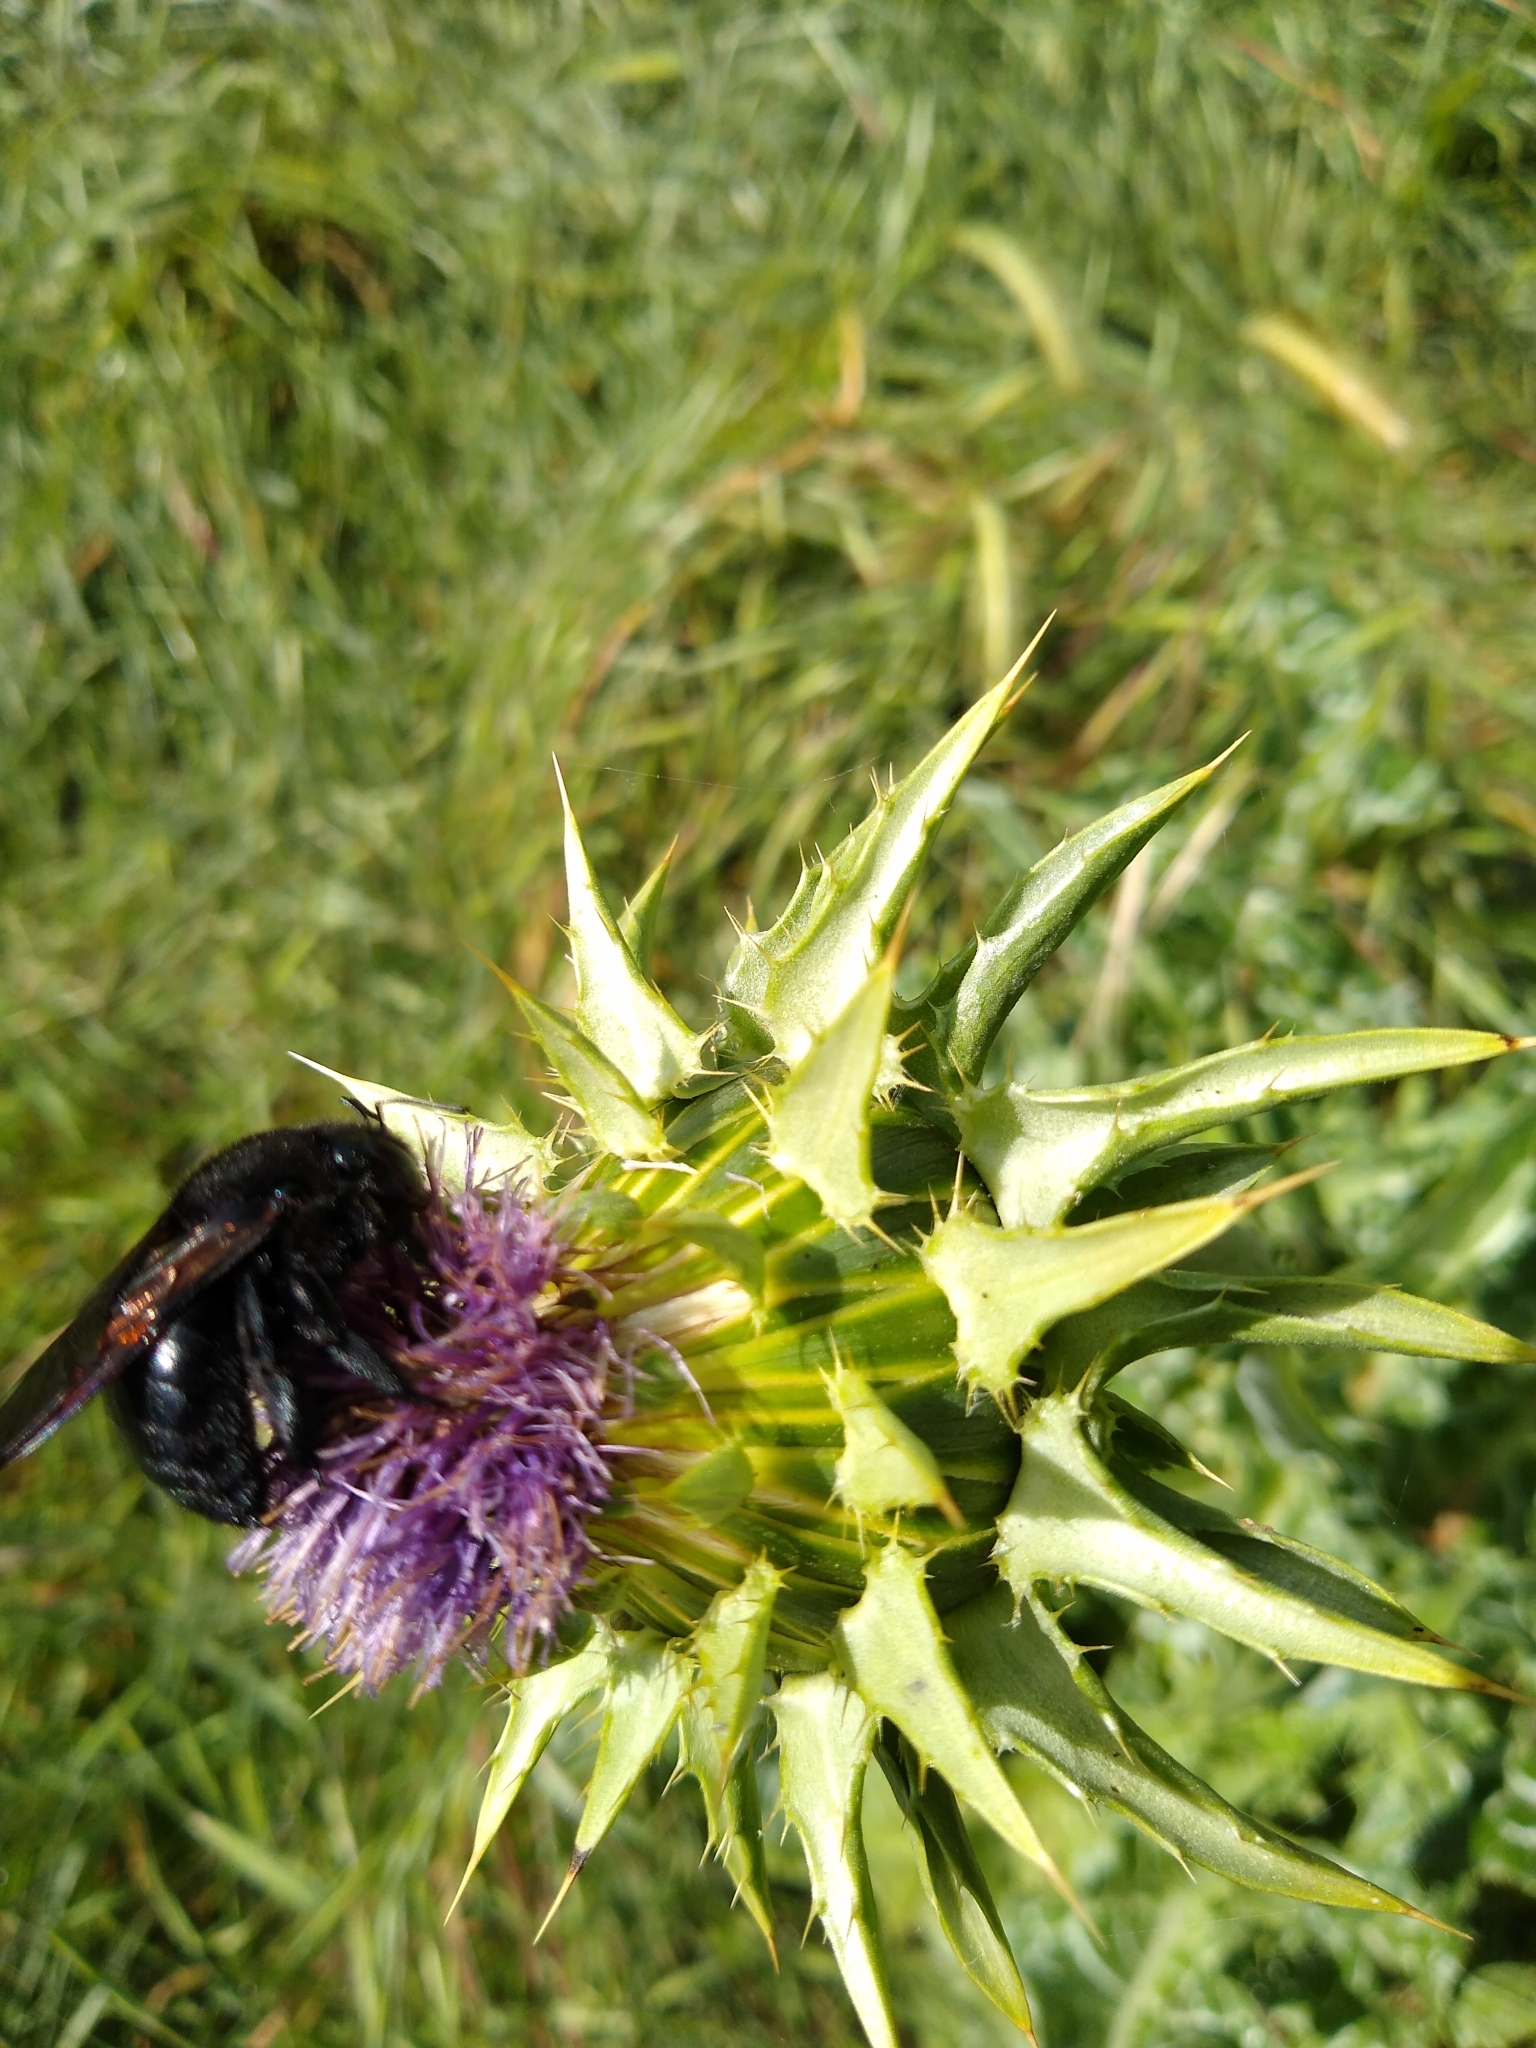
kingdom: Animalia
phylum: Arthropoda
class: Insecta
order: Hymenoptera
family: Apidae
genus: Xylocopa
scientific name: Xylocopa sonorina
